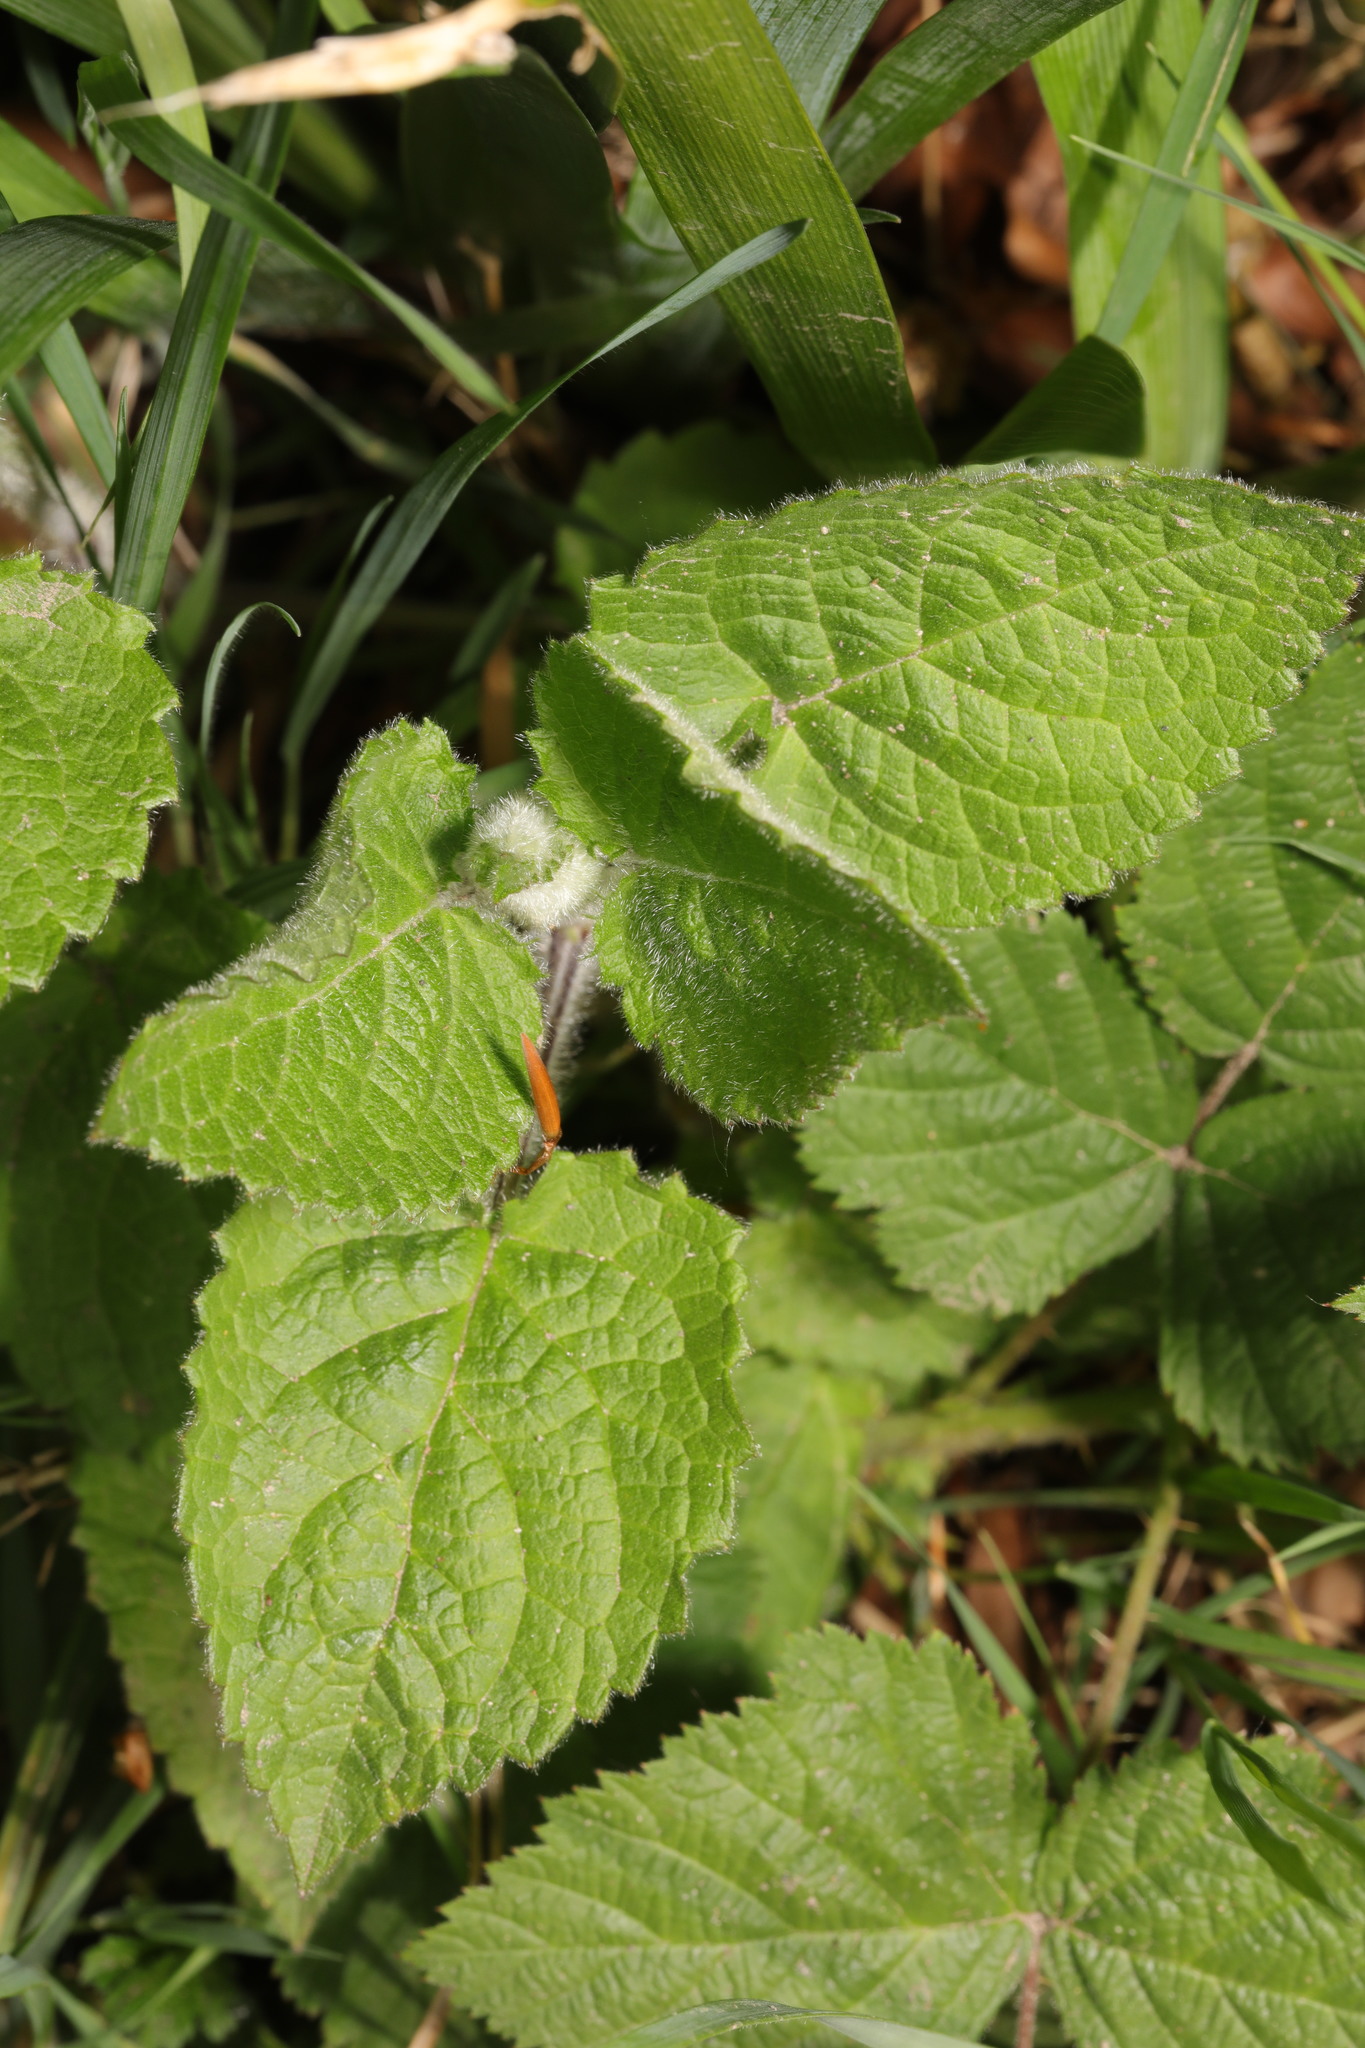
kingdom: Plantae
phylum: Tracheophyta
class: Magnoliopsida
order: Lamiales
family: Lamiaceae
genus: Stachys
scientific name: Stachys sylvatica
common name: Hedge woundwort
